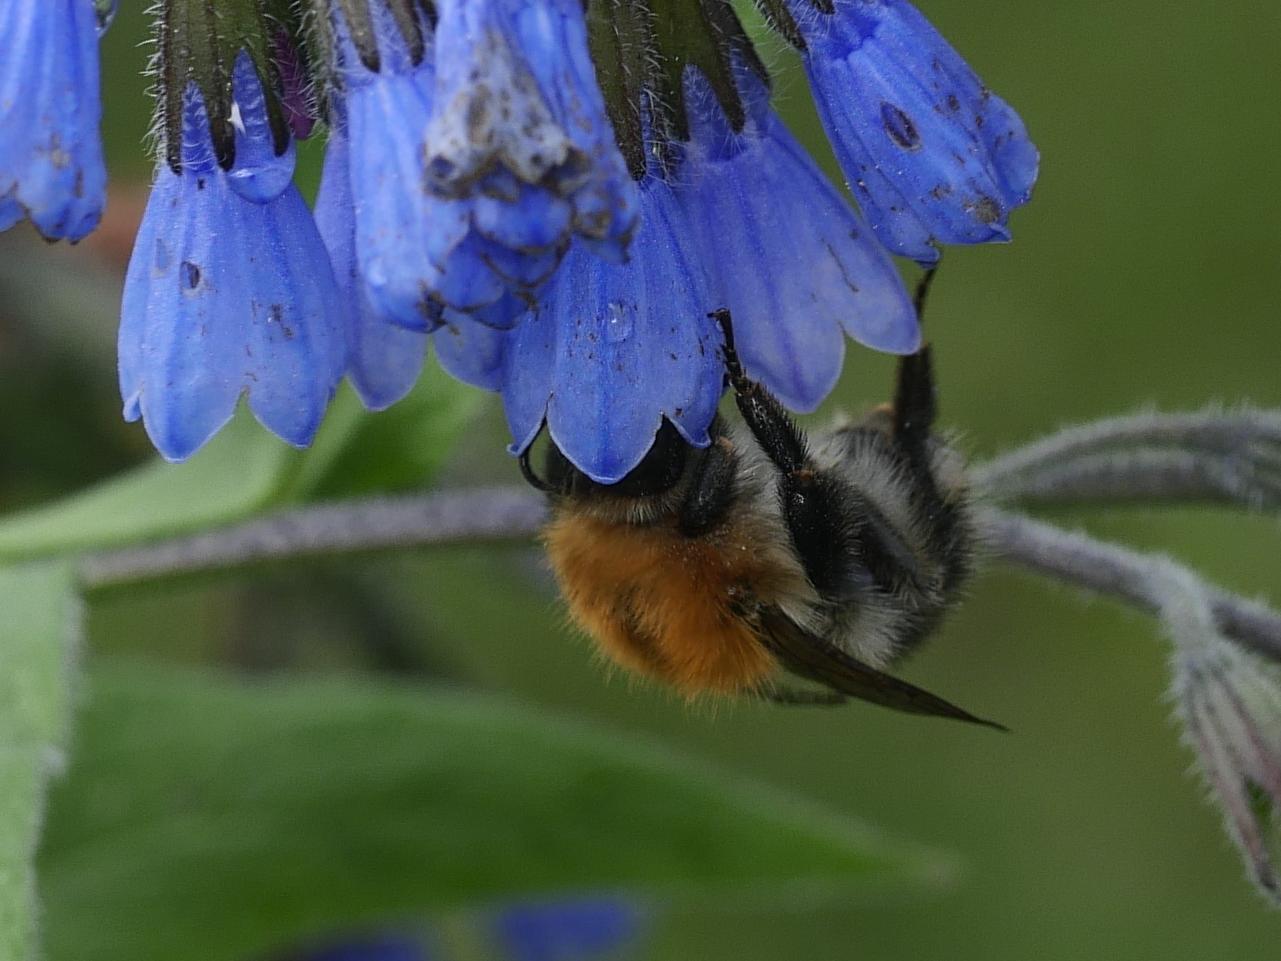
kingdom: Animalia
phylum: Arthropoda
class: Insecta
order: Hymenoptera
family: Apidae
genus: Bombus
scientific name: Bombus pascuorum
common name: Common carder bee
